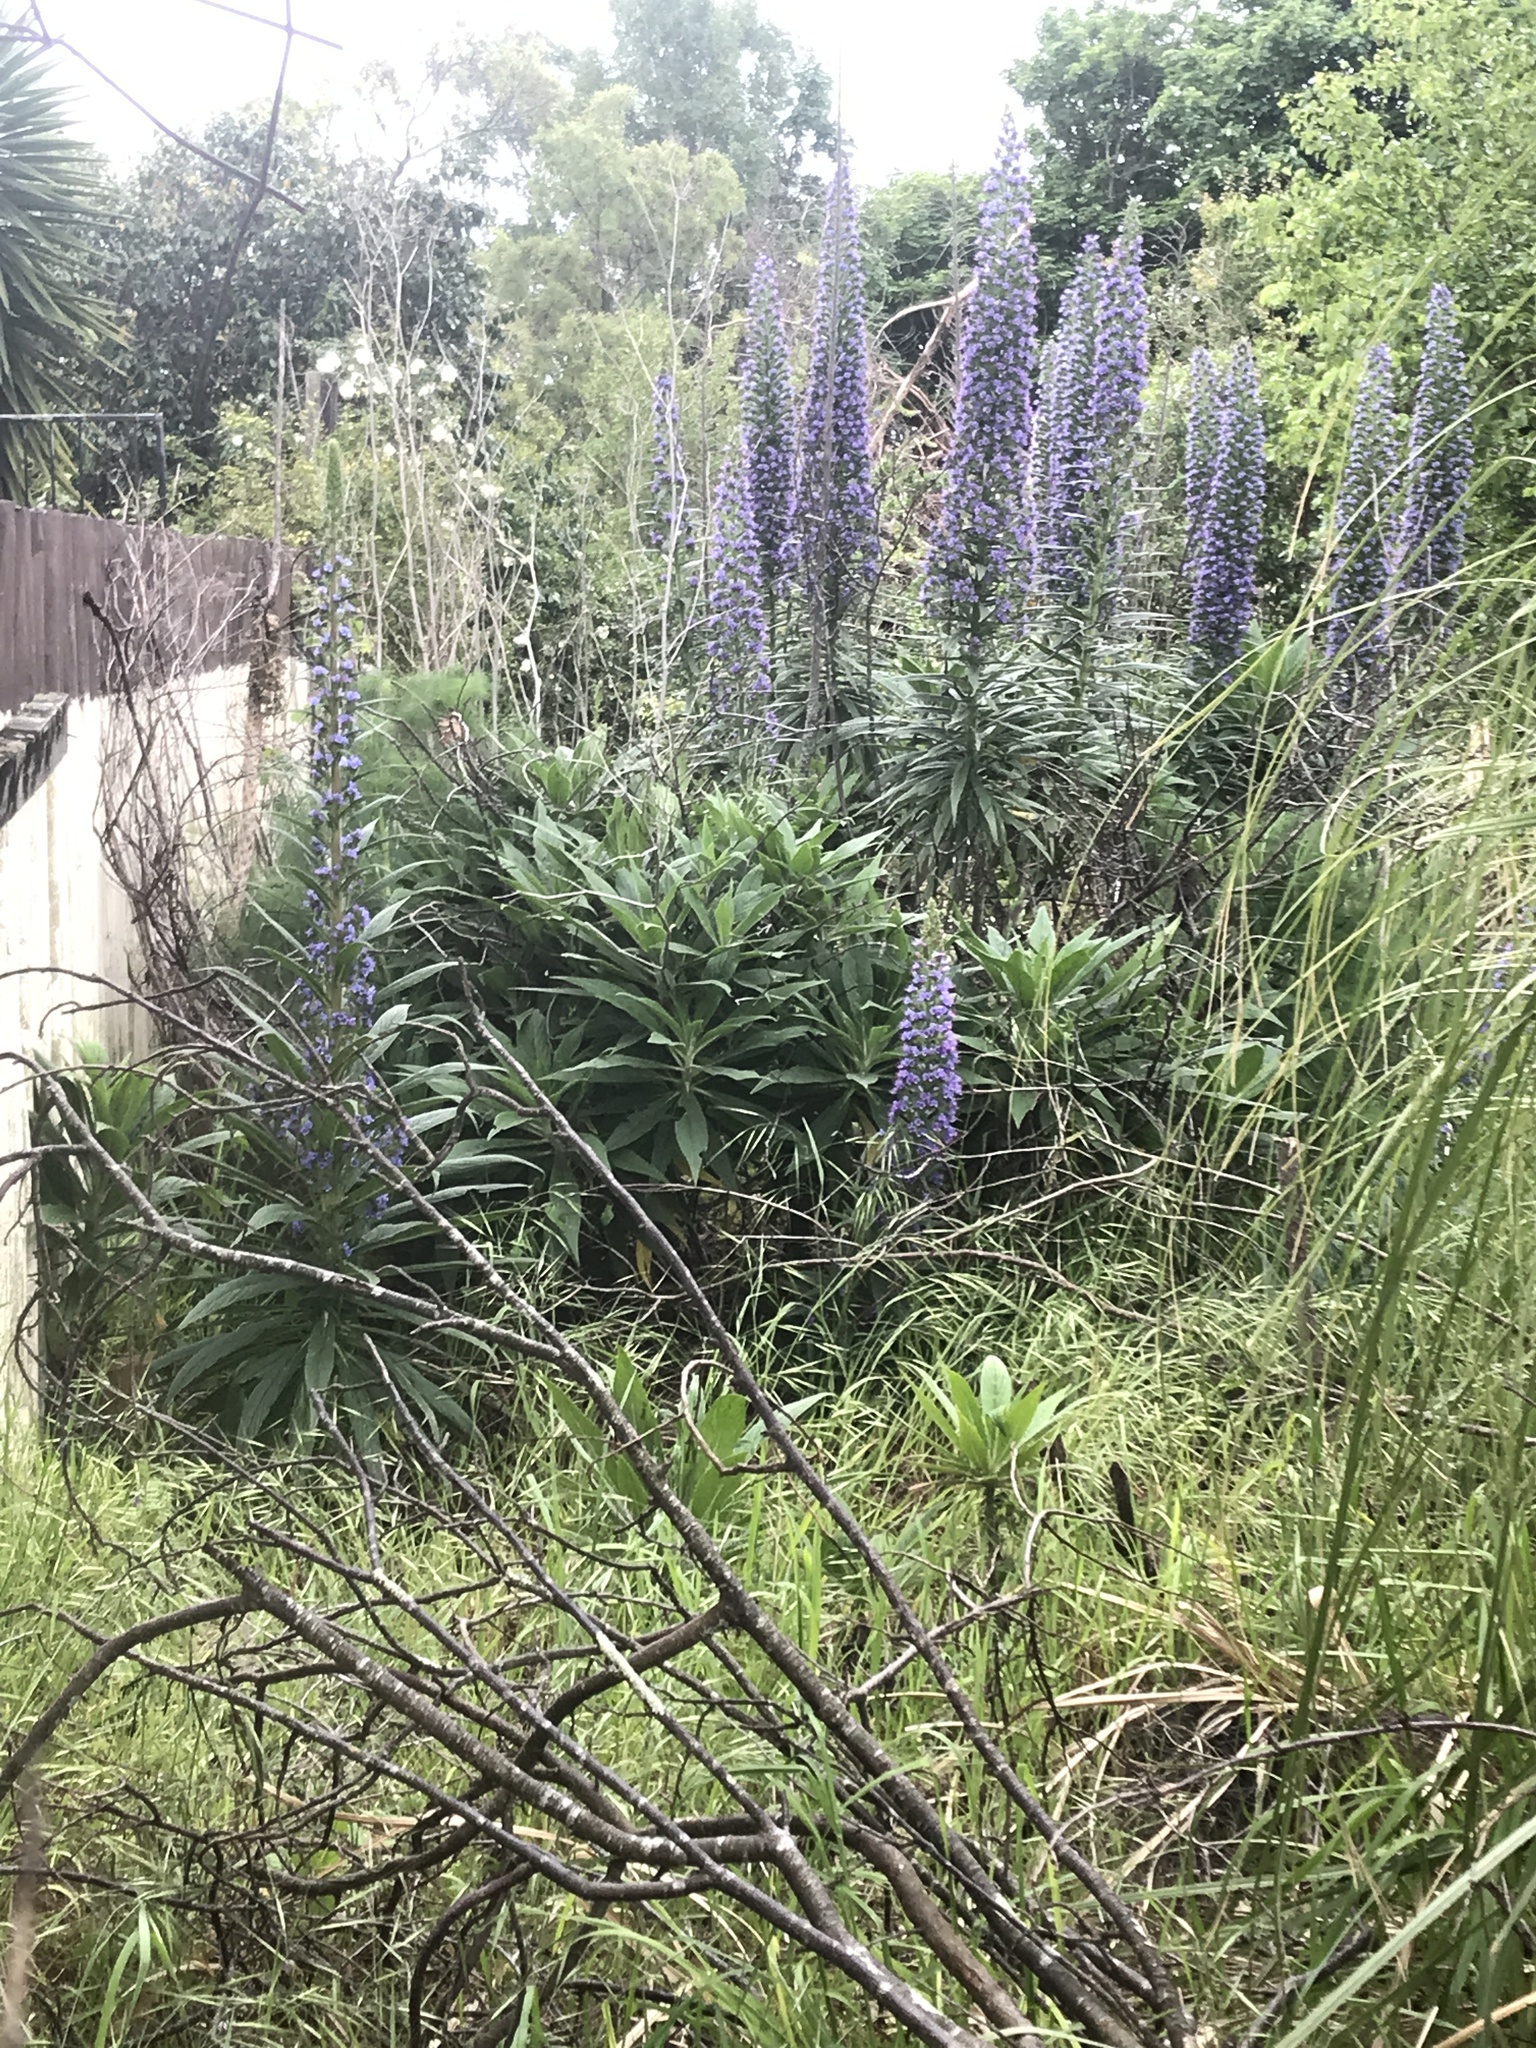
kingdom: Plantae
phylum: Tracheophyta
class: Magnoliopsida
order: Boraginales
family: Boraginaceae
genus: Echium
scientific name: Echium pininana
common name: Giant viper's-bugloss
